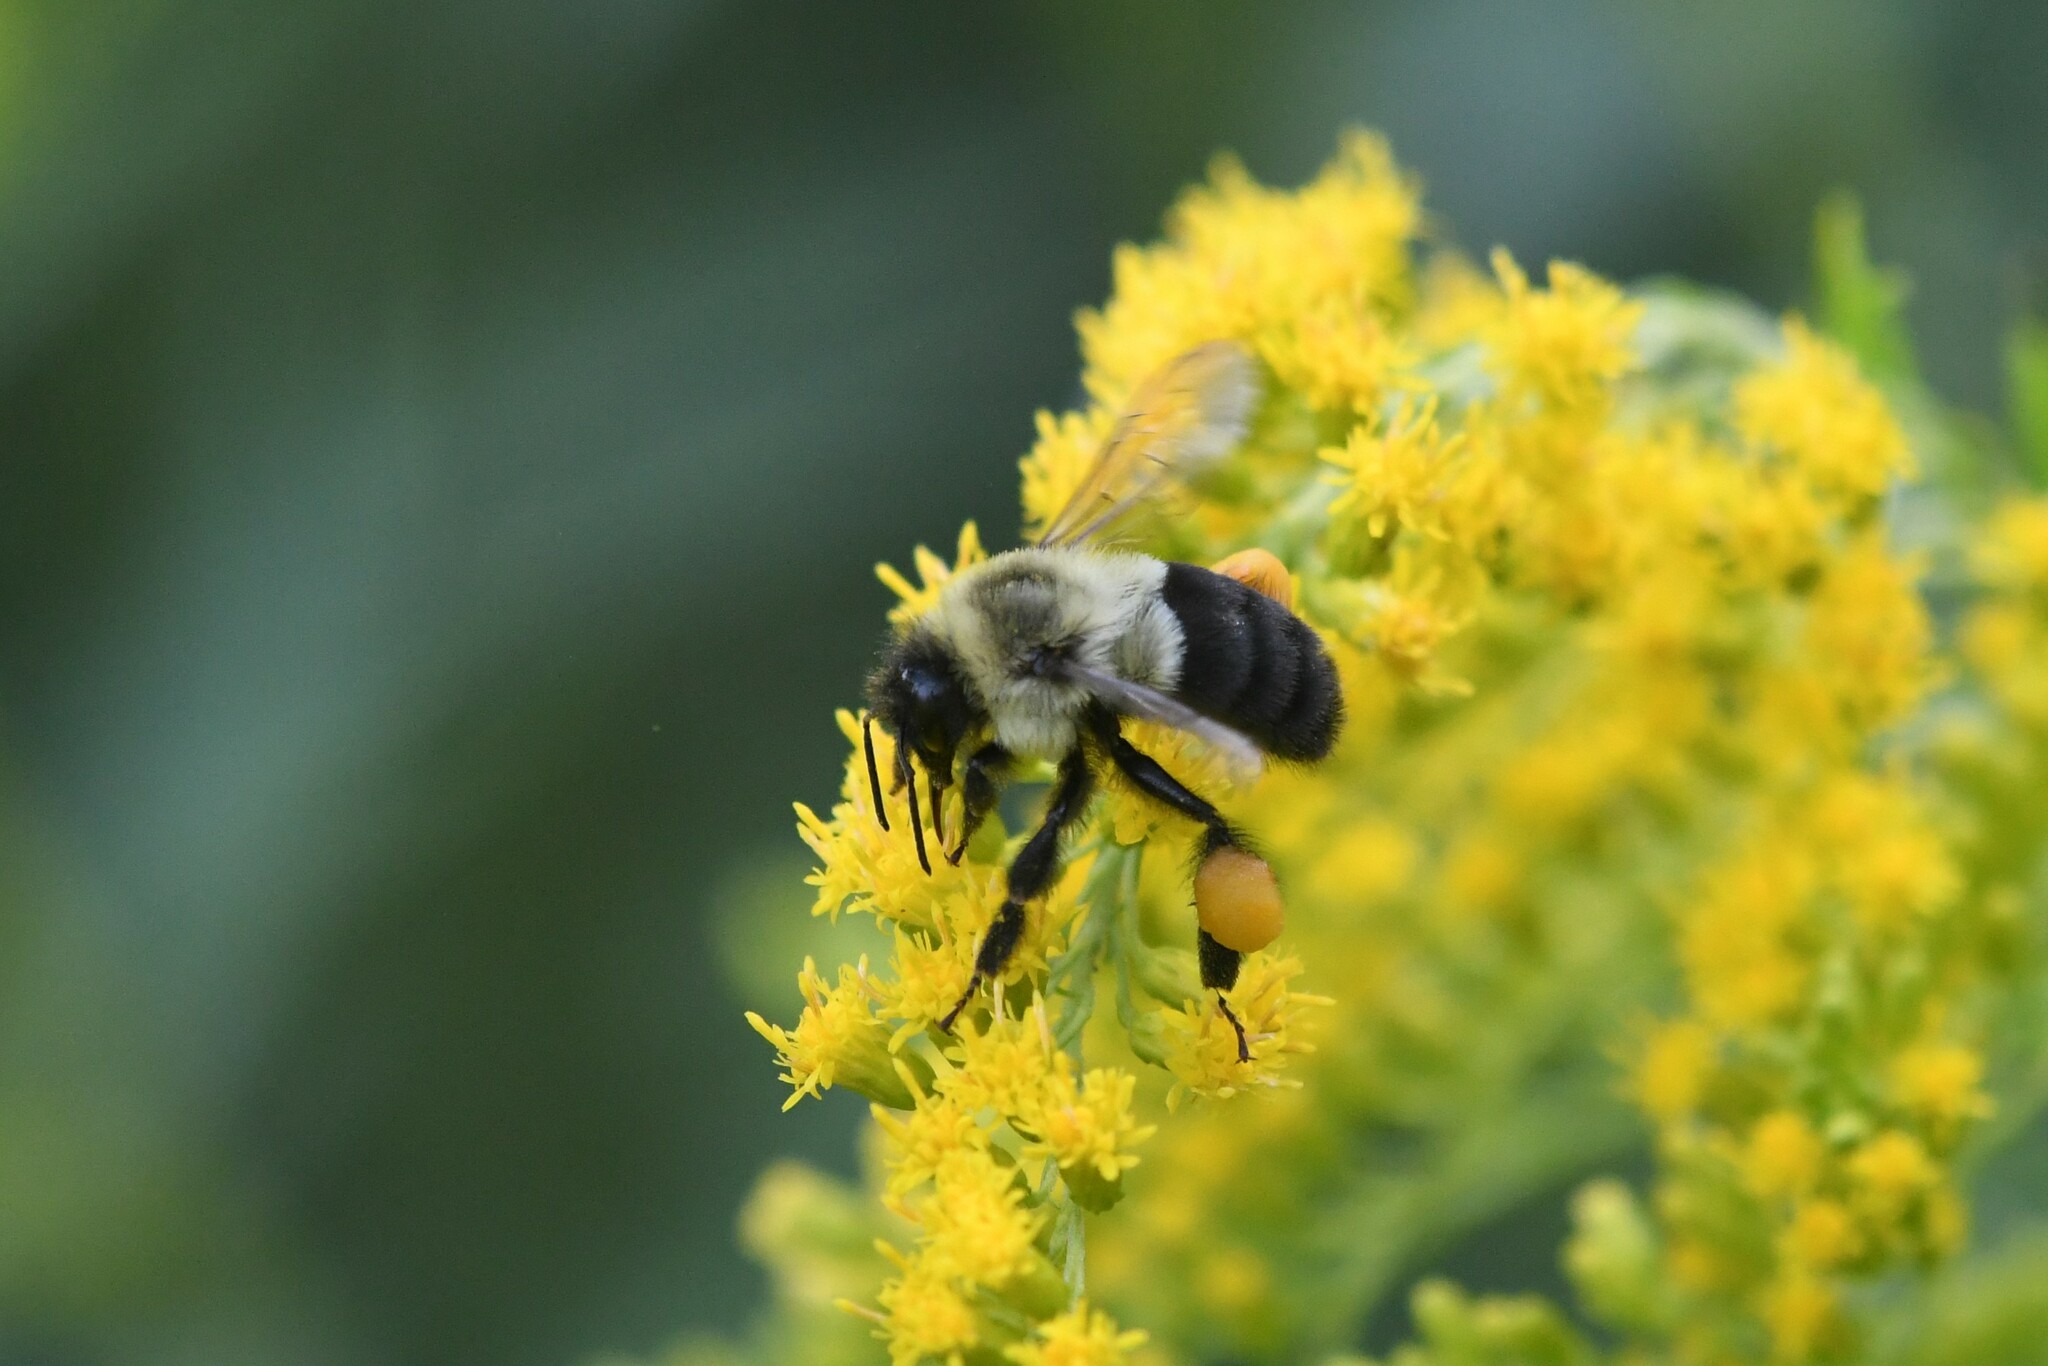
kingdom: Animalia
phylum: Arthropoda
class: Insecta
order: Hymenoptera
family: Apidae
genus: Bombus
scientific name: Bombus impatiens
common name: Common eastern bumble bee
